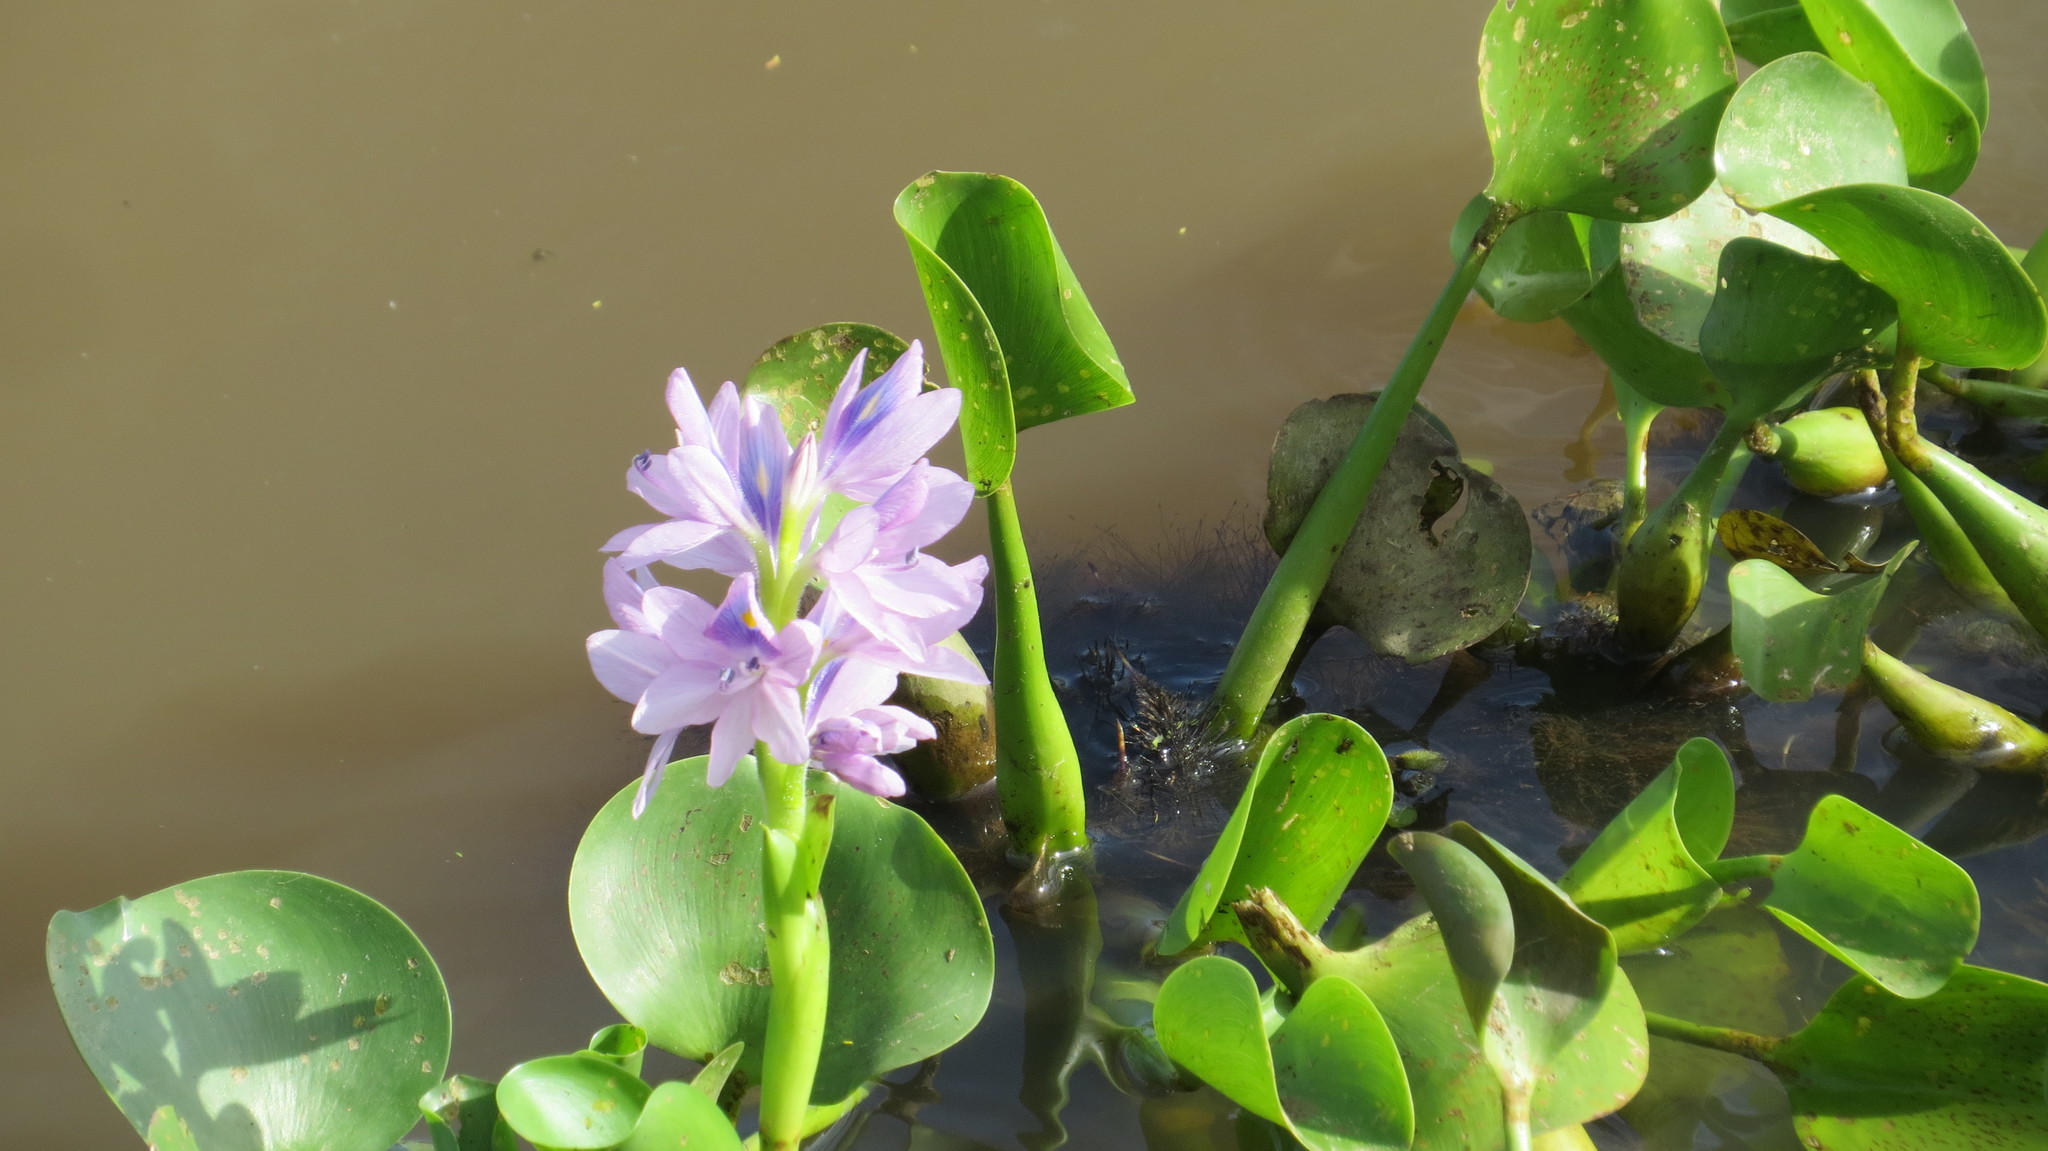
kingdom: Plantae
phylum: Tracheophyta
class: Liliopsida
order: Commelinales
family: Pontederiaceae
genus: Pontederia
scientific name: Pontederia crassipes
